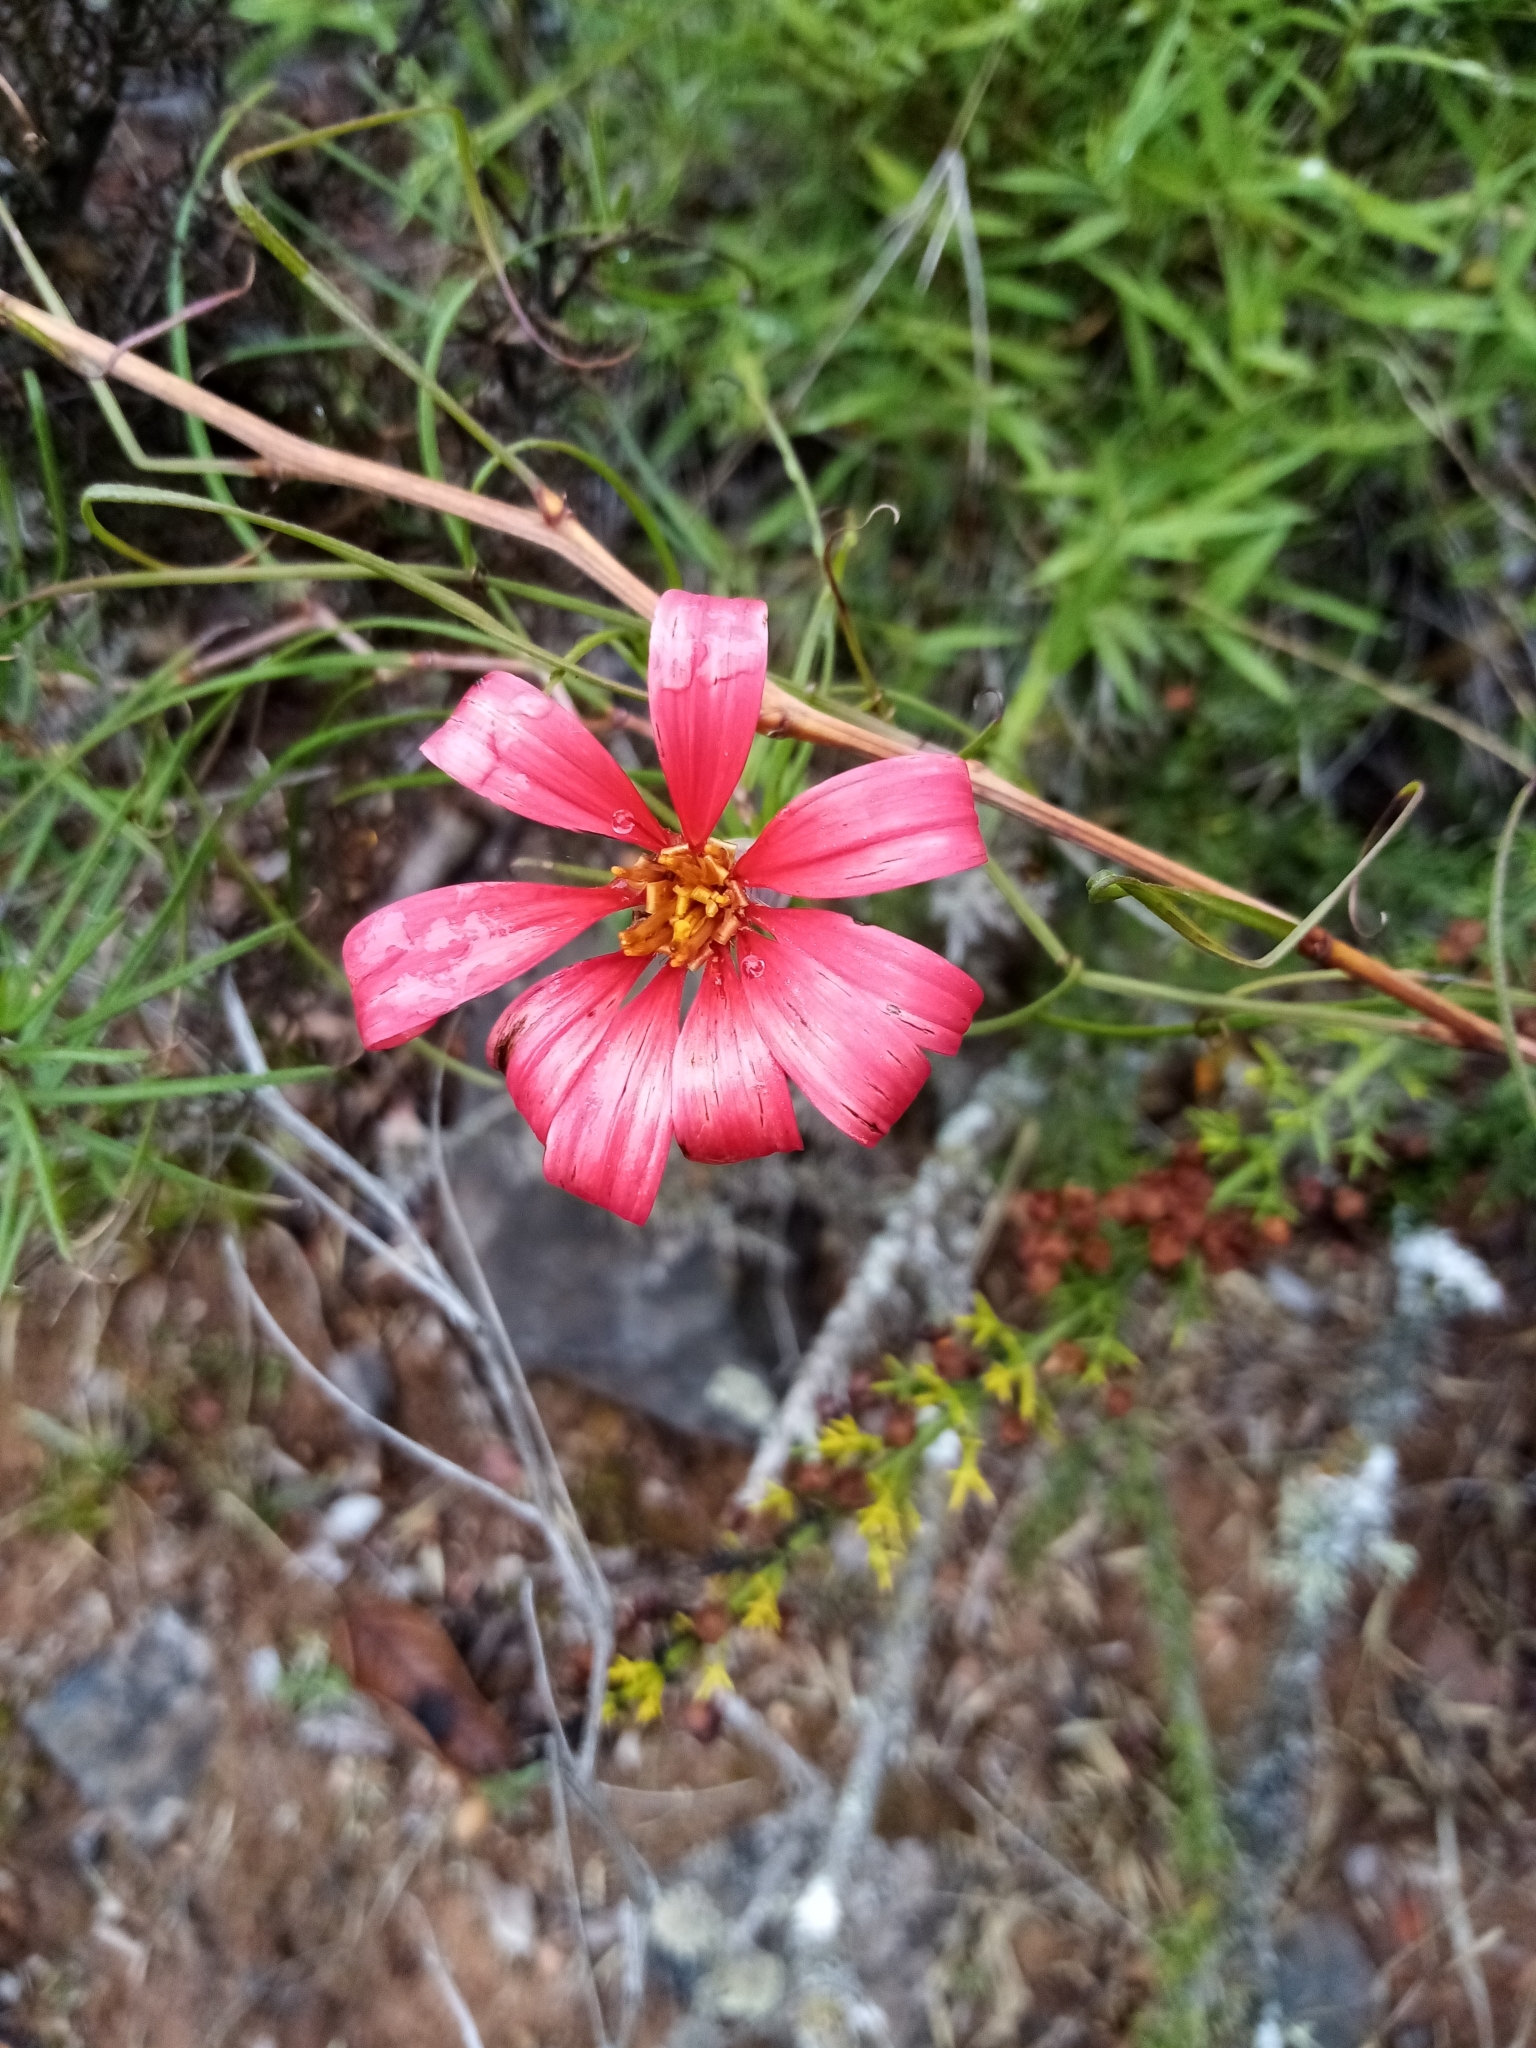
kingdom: Plantae
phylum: Tracheophyta
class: Magnoliopsida
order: Asterales
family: Asteraceae
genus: Mutisia
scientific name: Mutisia subulata
